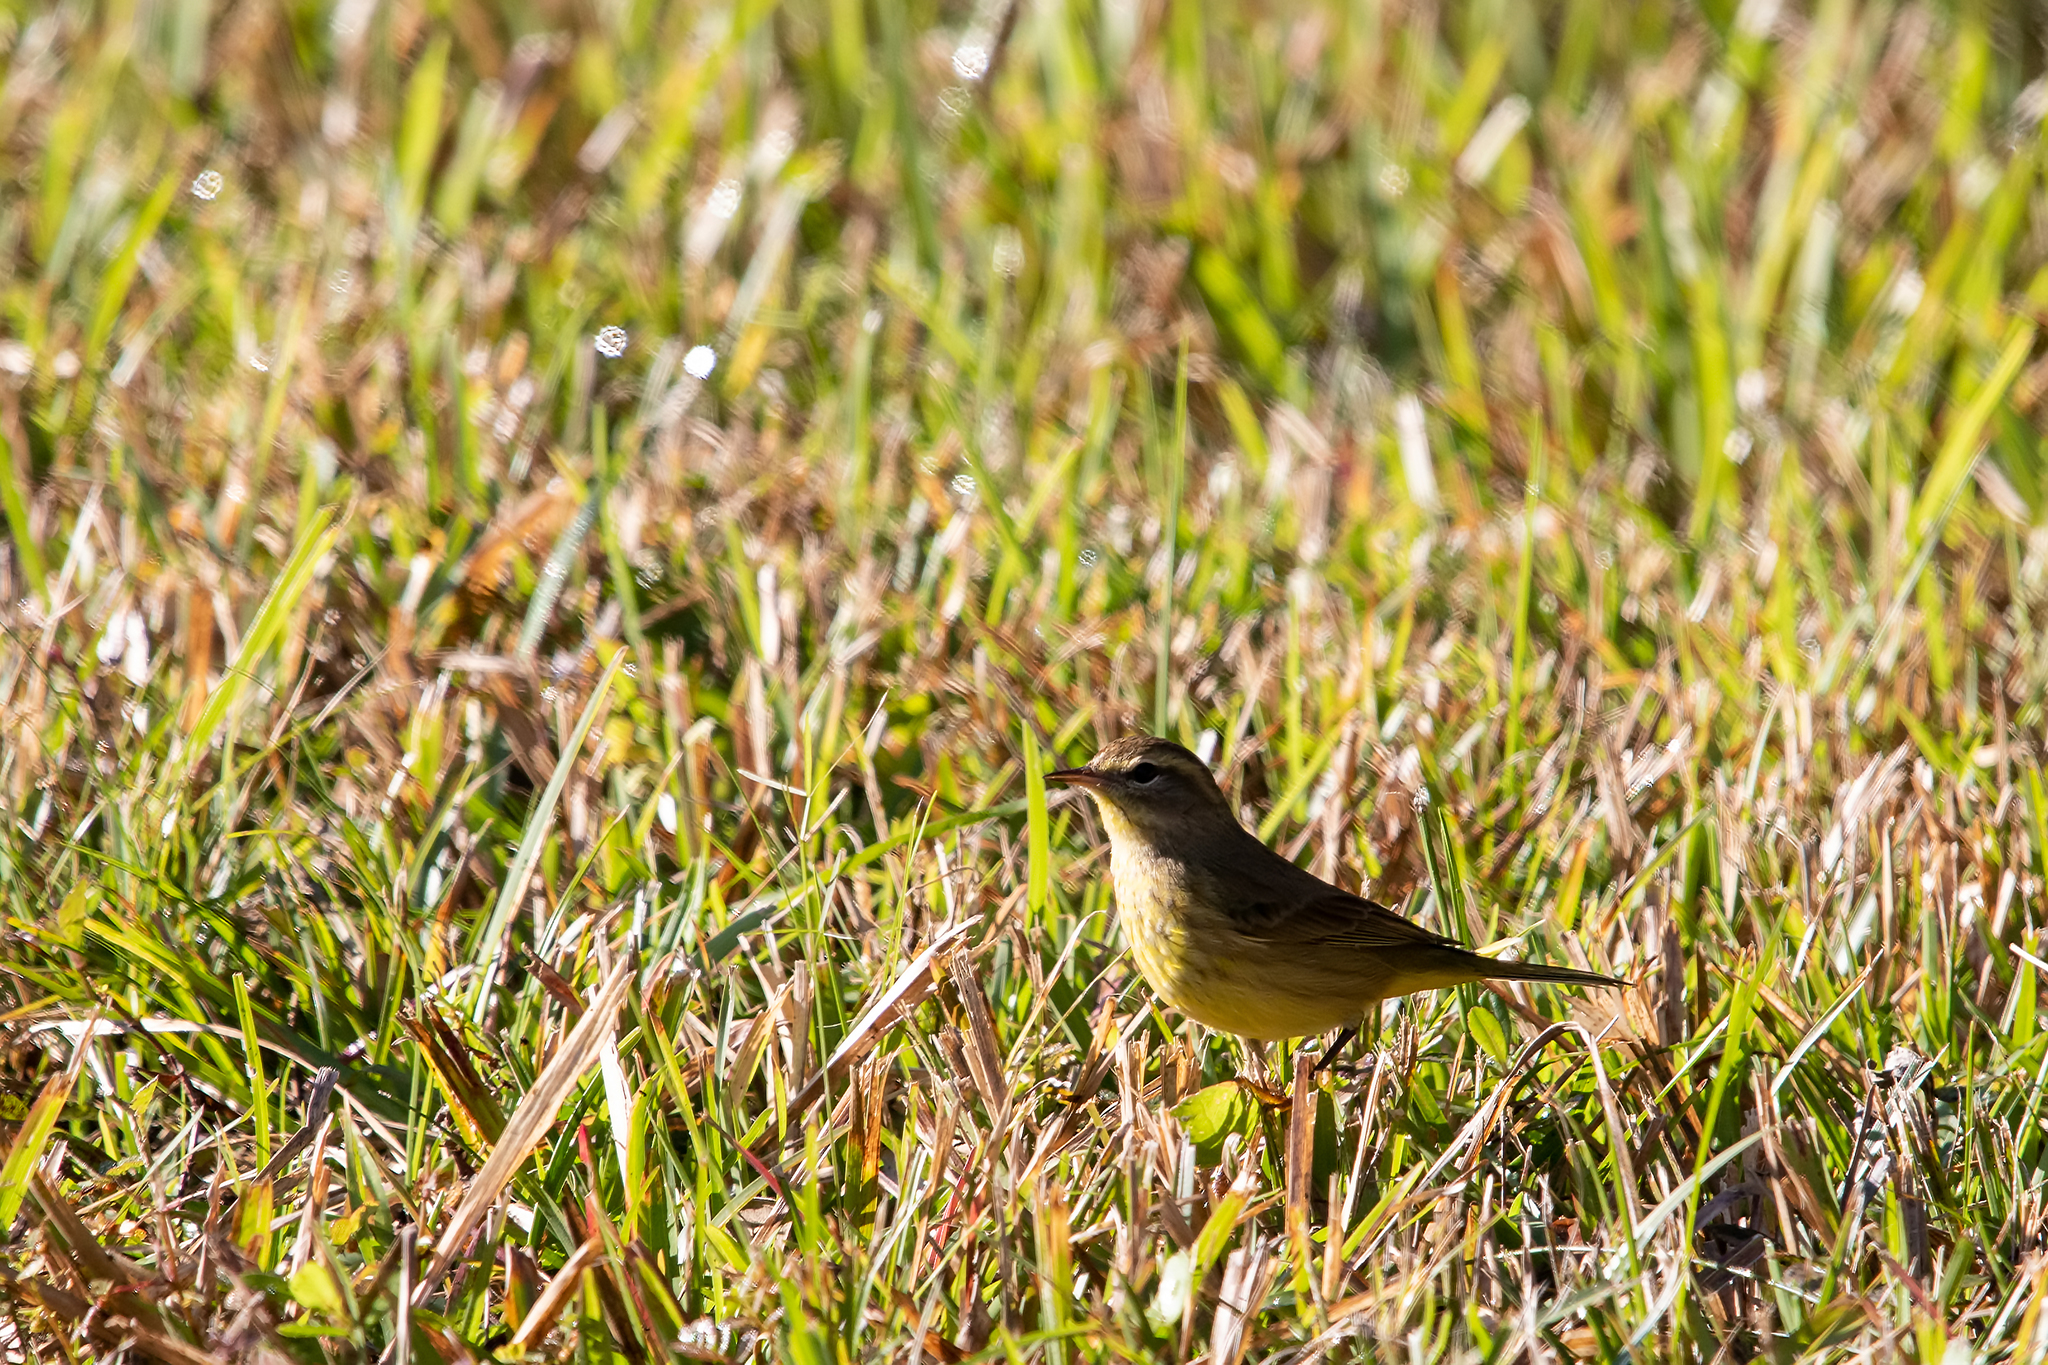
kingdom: Animalia
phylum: Chordata
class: Aves
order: Passeriformes
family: Parulidae
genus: Setophaga
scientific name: Setophaga palmarum
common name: Palm warbler
